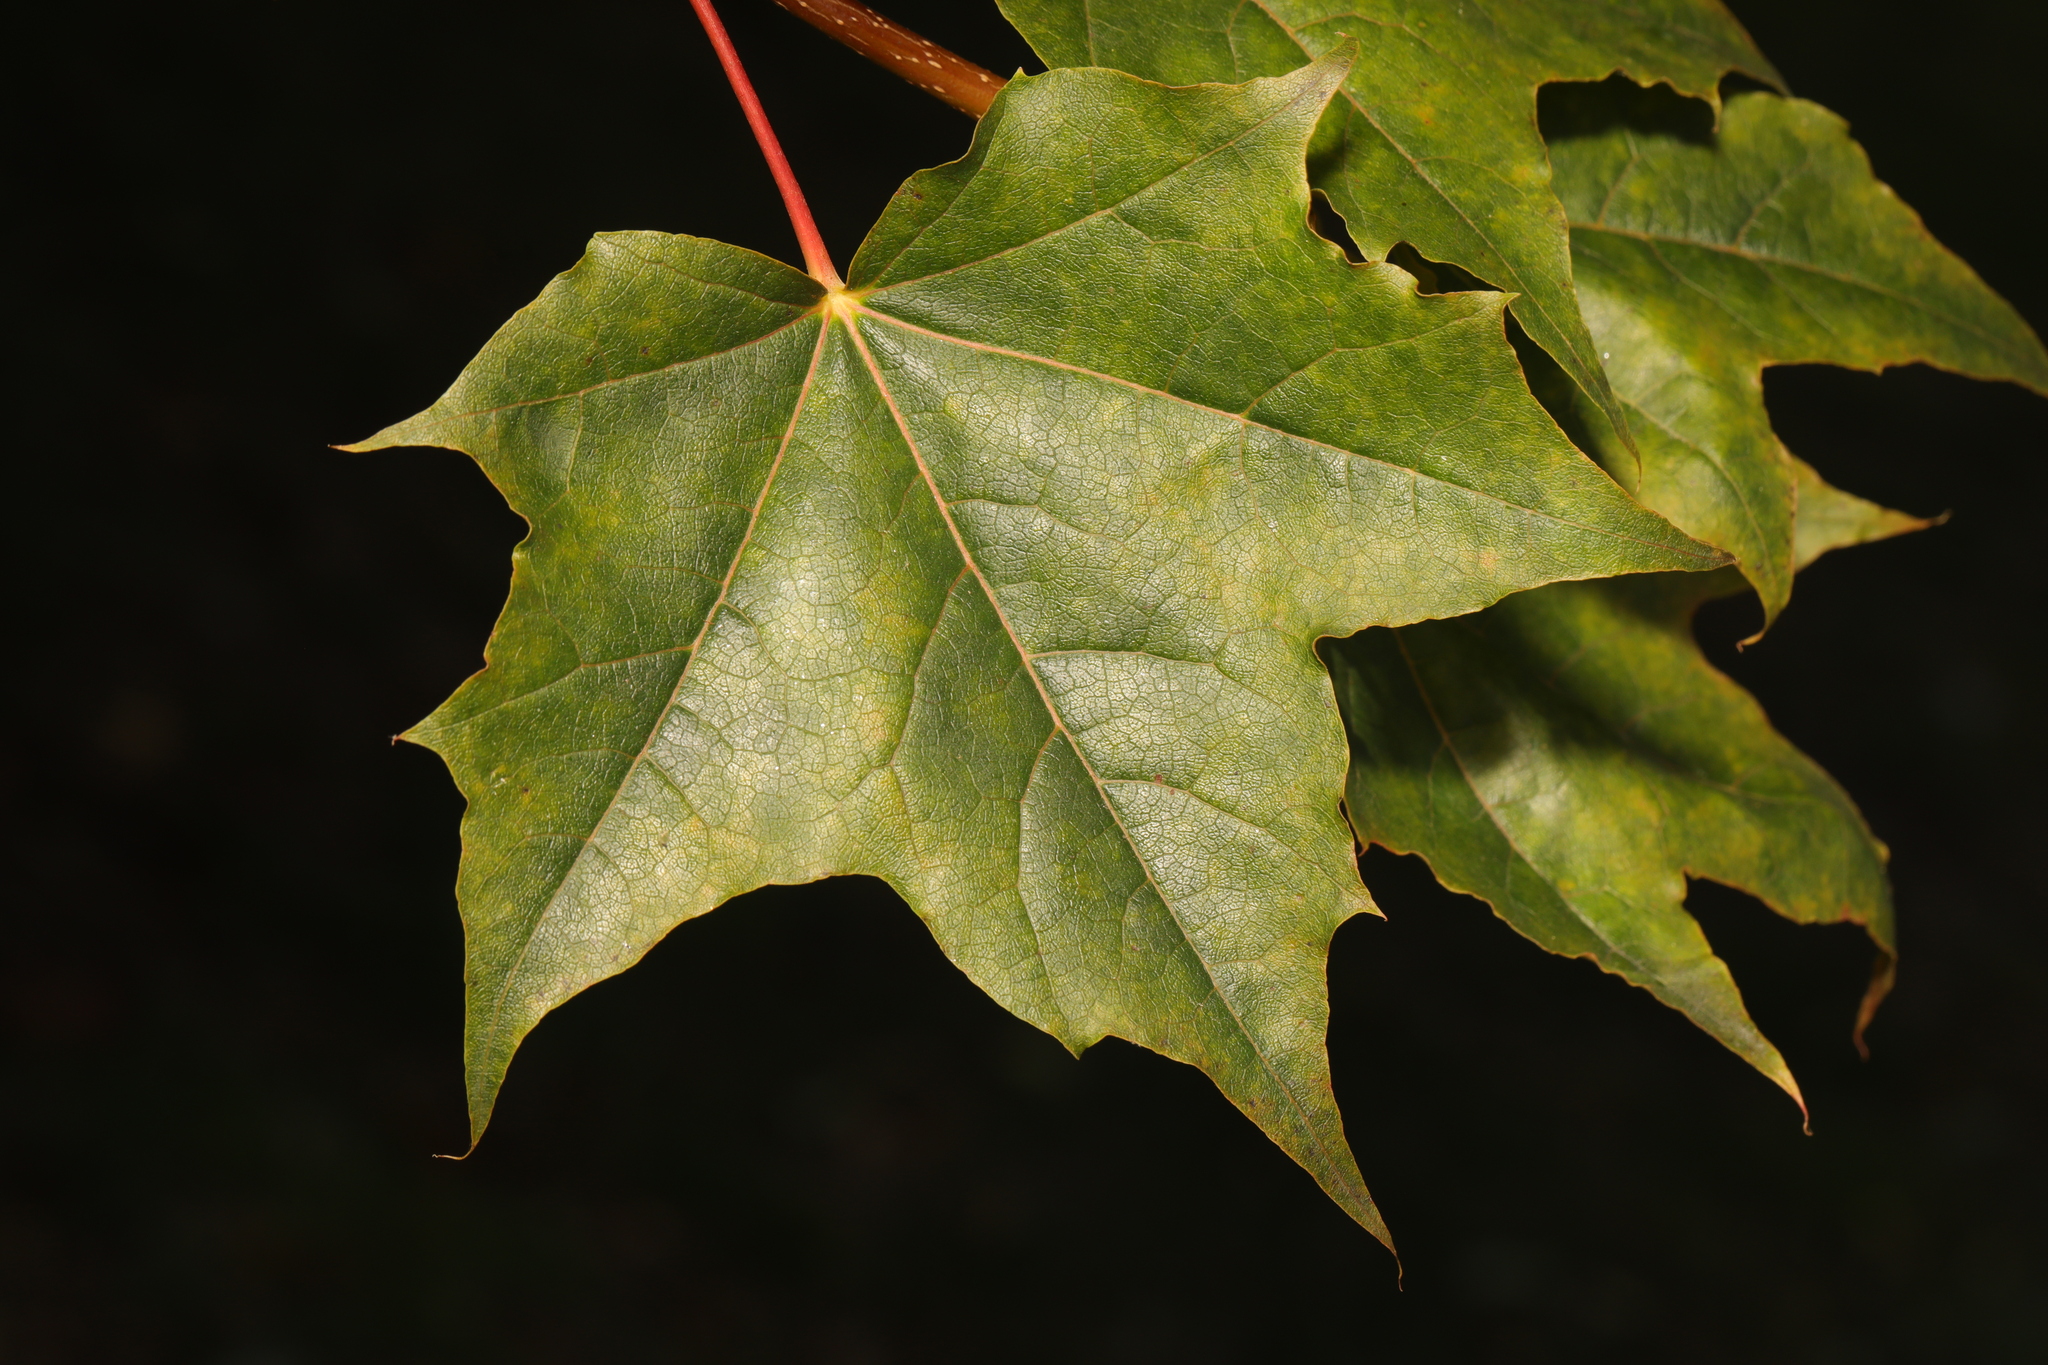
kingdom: Plantae
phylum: Tracheophyta
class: Magnoliopsida
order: Sapindales
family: Sapindaceae
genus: Acer
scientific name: Acer platanoides
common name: Norway maple
